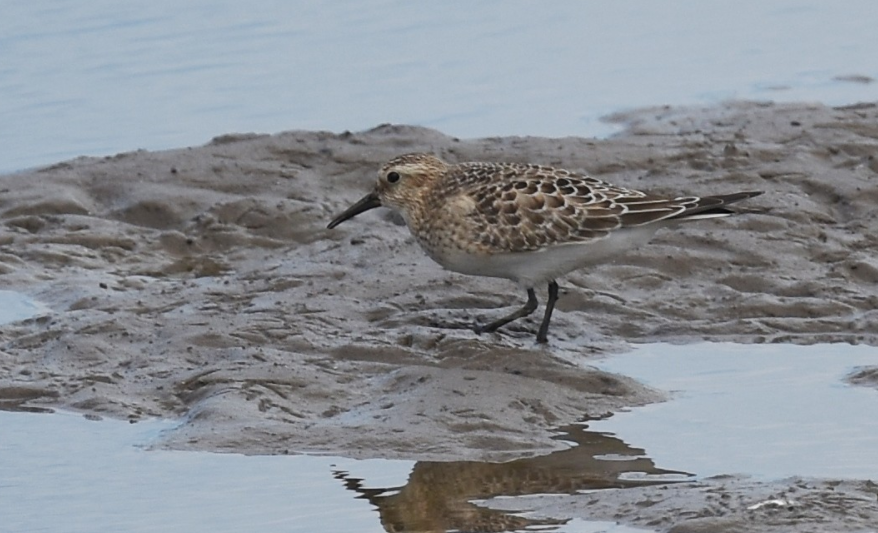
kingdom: Animalia
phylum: Chordata
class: Aves
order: Charadriiformes
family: Scolopacidae
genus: Calidris
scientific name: Calidris bairdii
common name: Baird's sandpiper
